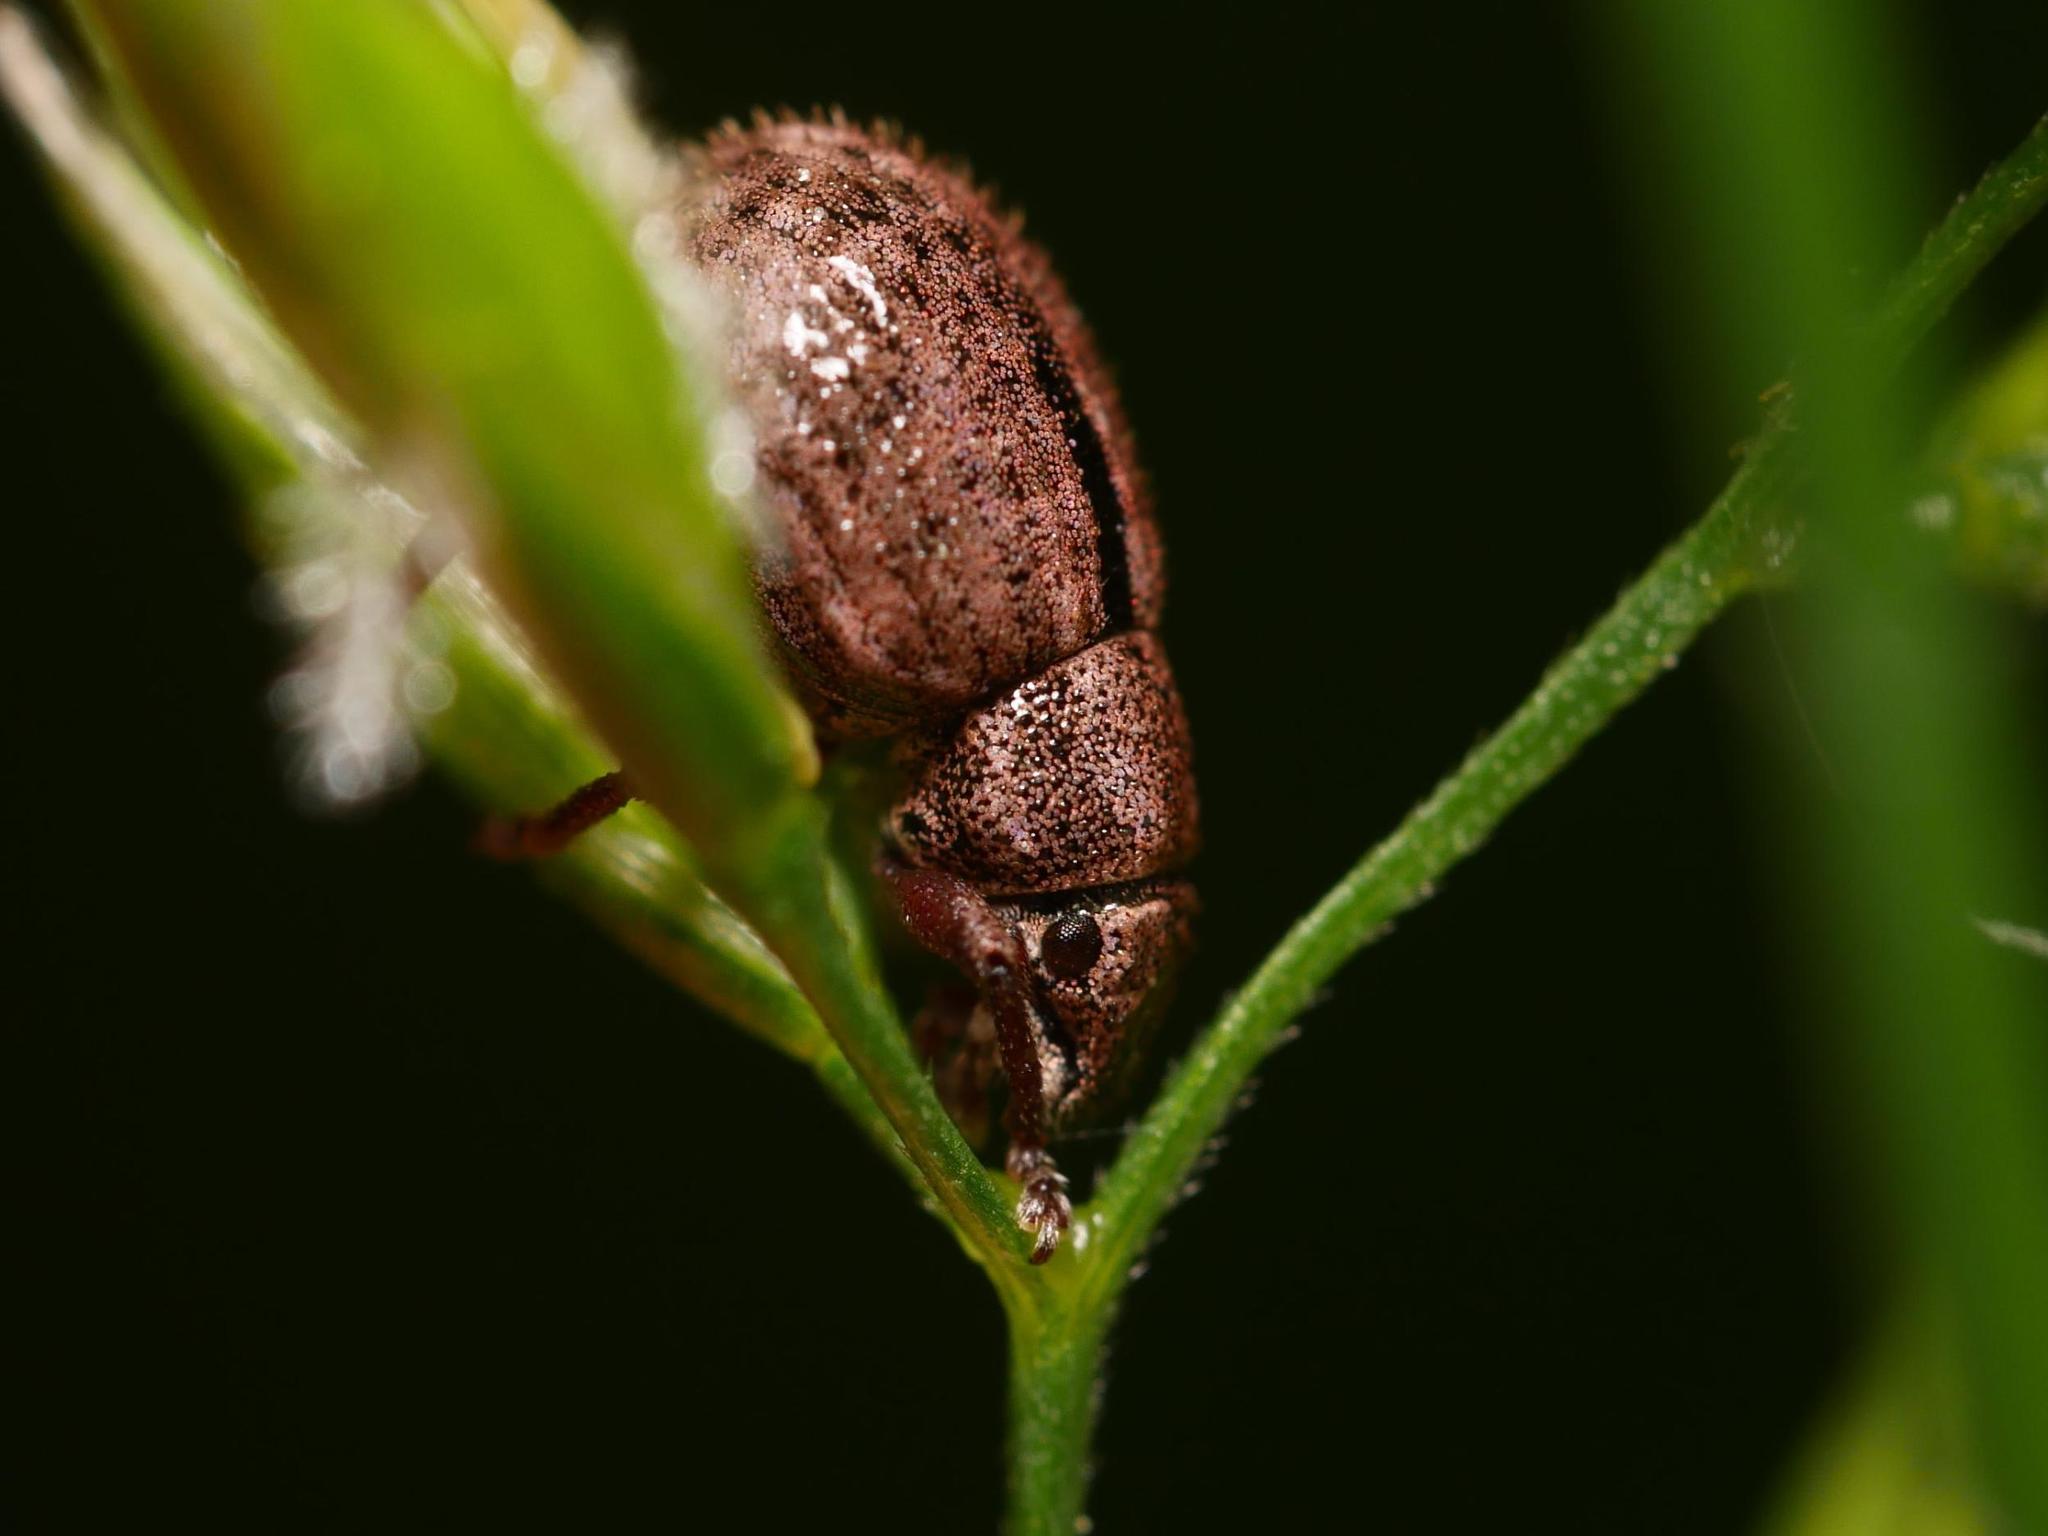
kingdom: Animalia
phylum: Arthropoda
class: Insecta
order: Coleoptera
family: Curculionidae
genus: Strophosoma
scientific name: Strophosoma melanogrammum
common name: Weevil
